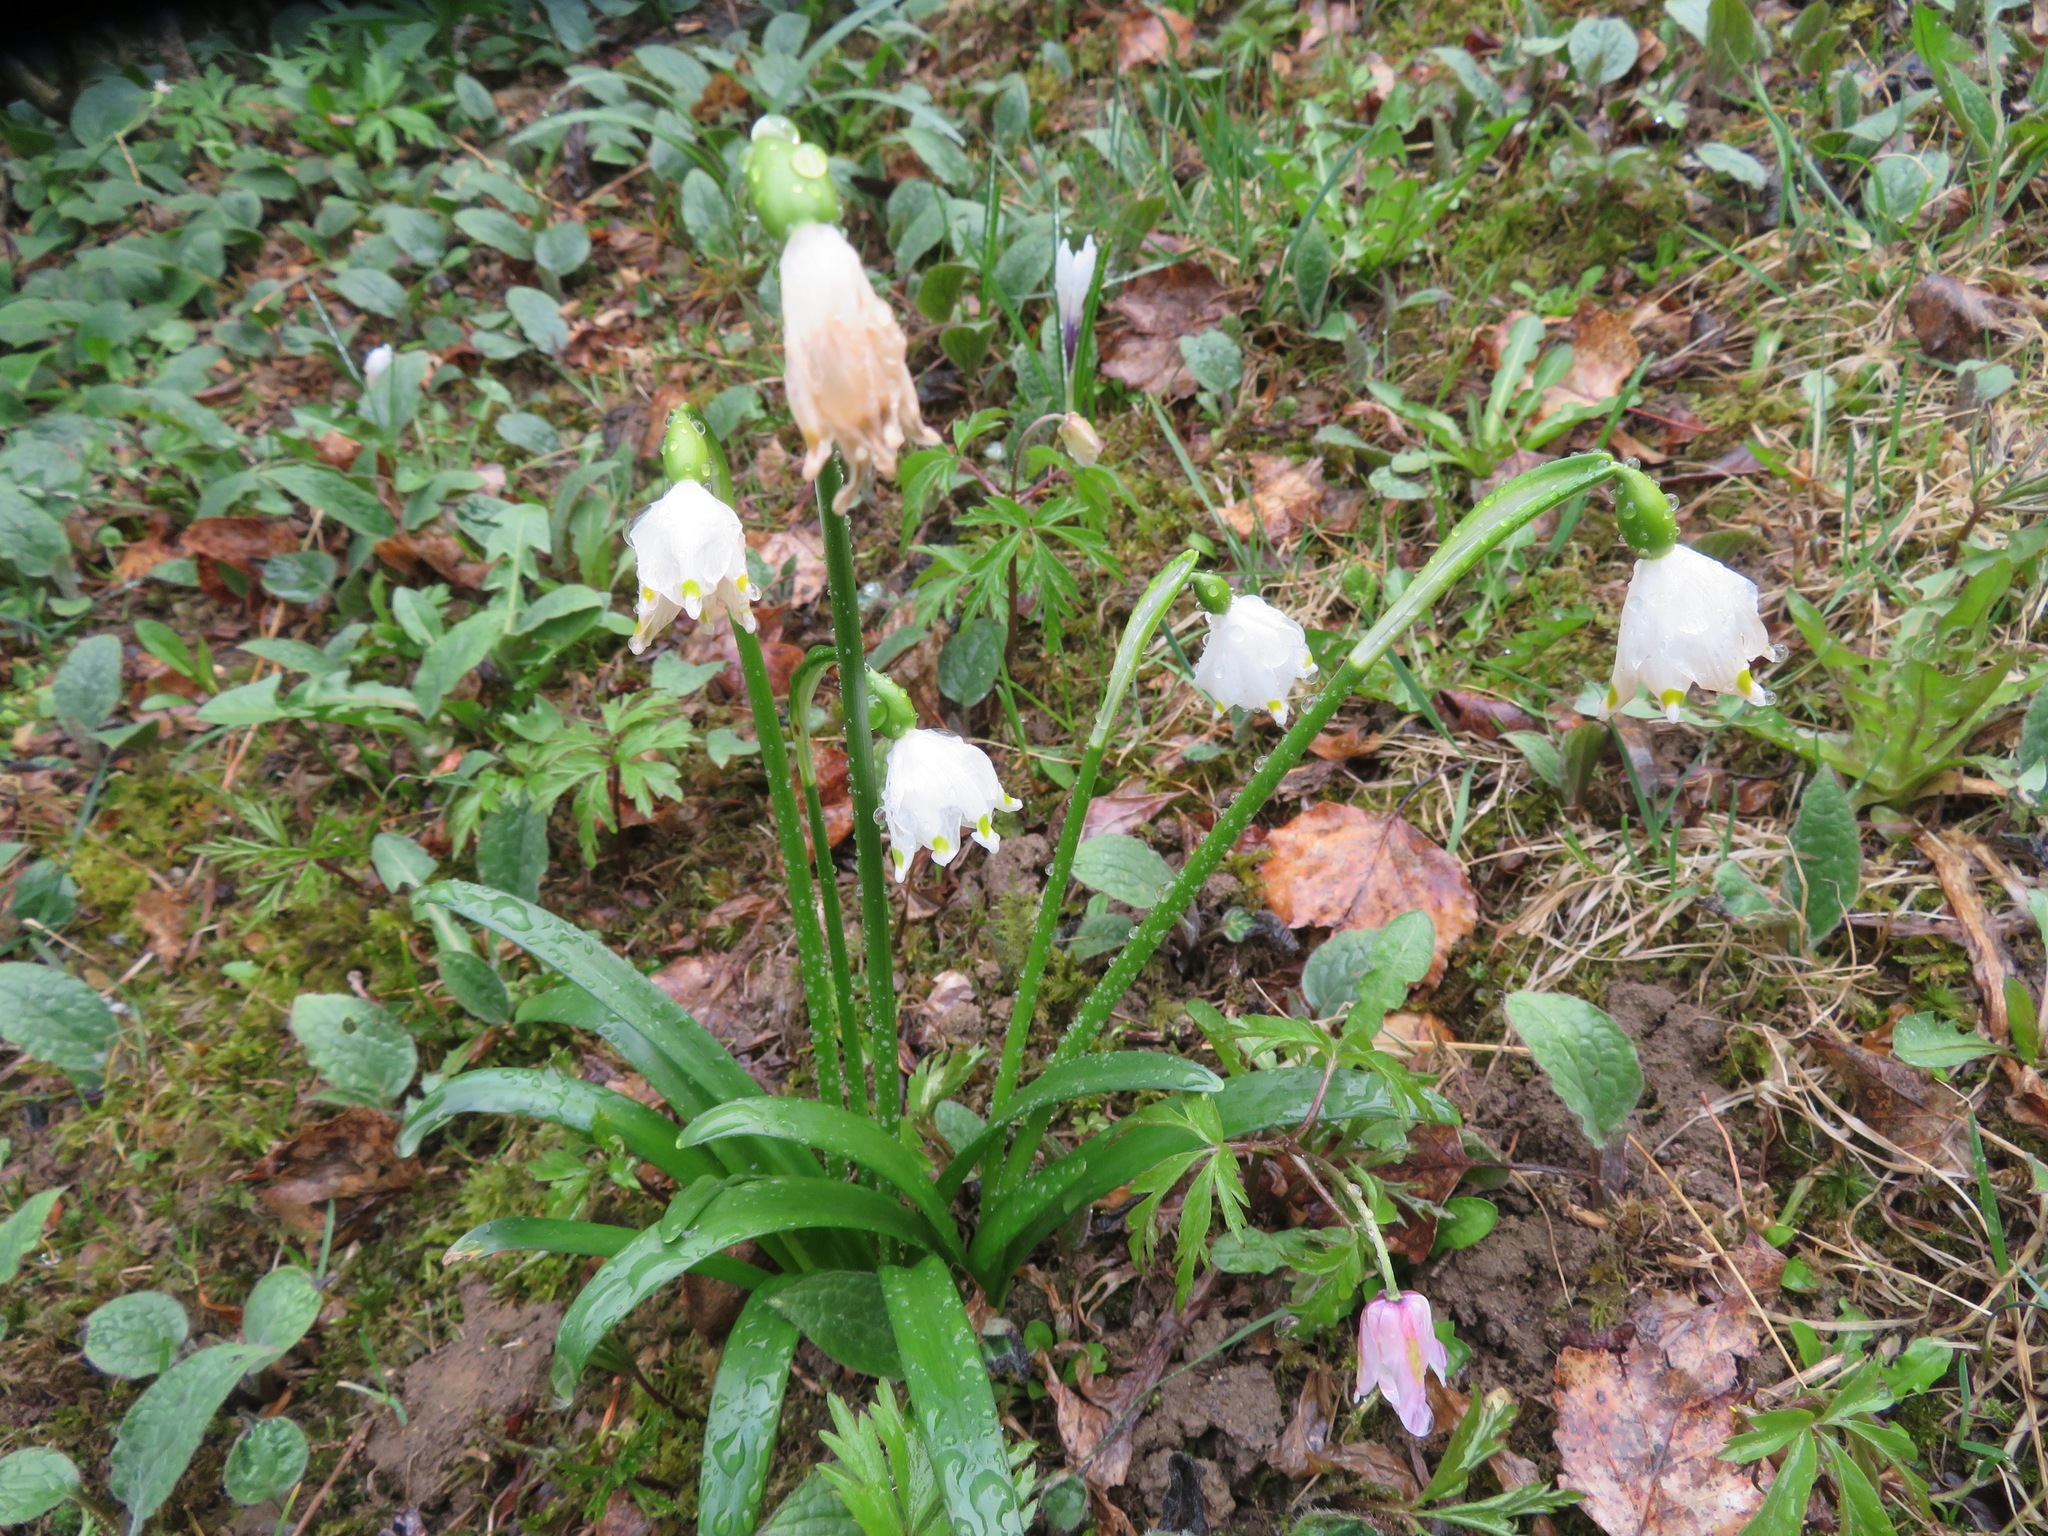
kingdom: Plantae
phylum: Tracheophyta
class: Liliopsida
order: Asparagales
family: Amaryllidaceae
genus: Leucojum
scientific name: Leucojum vernum
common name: Spring snowflake
